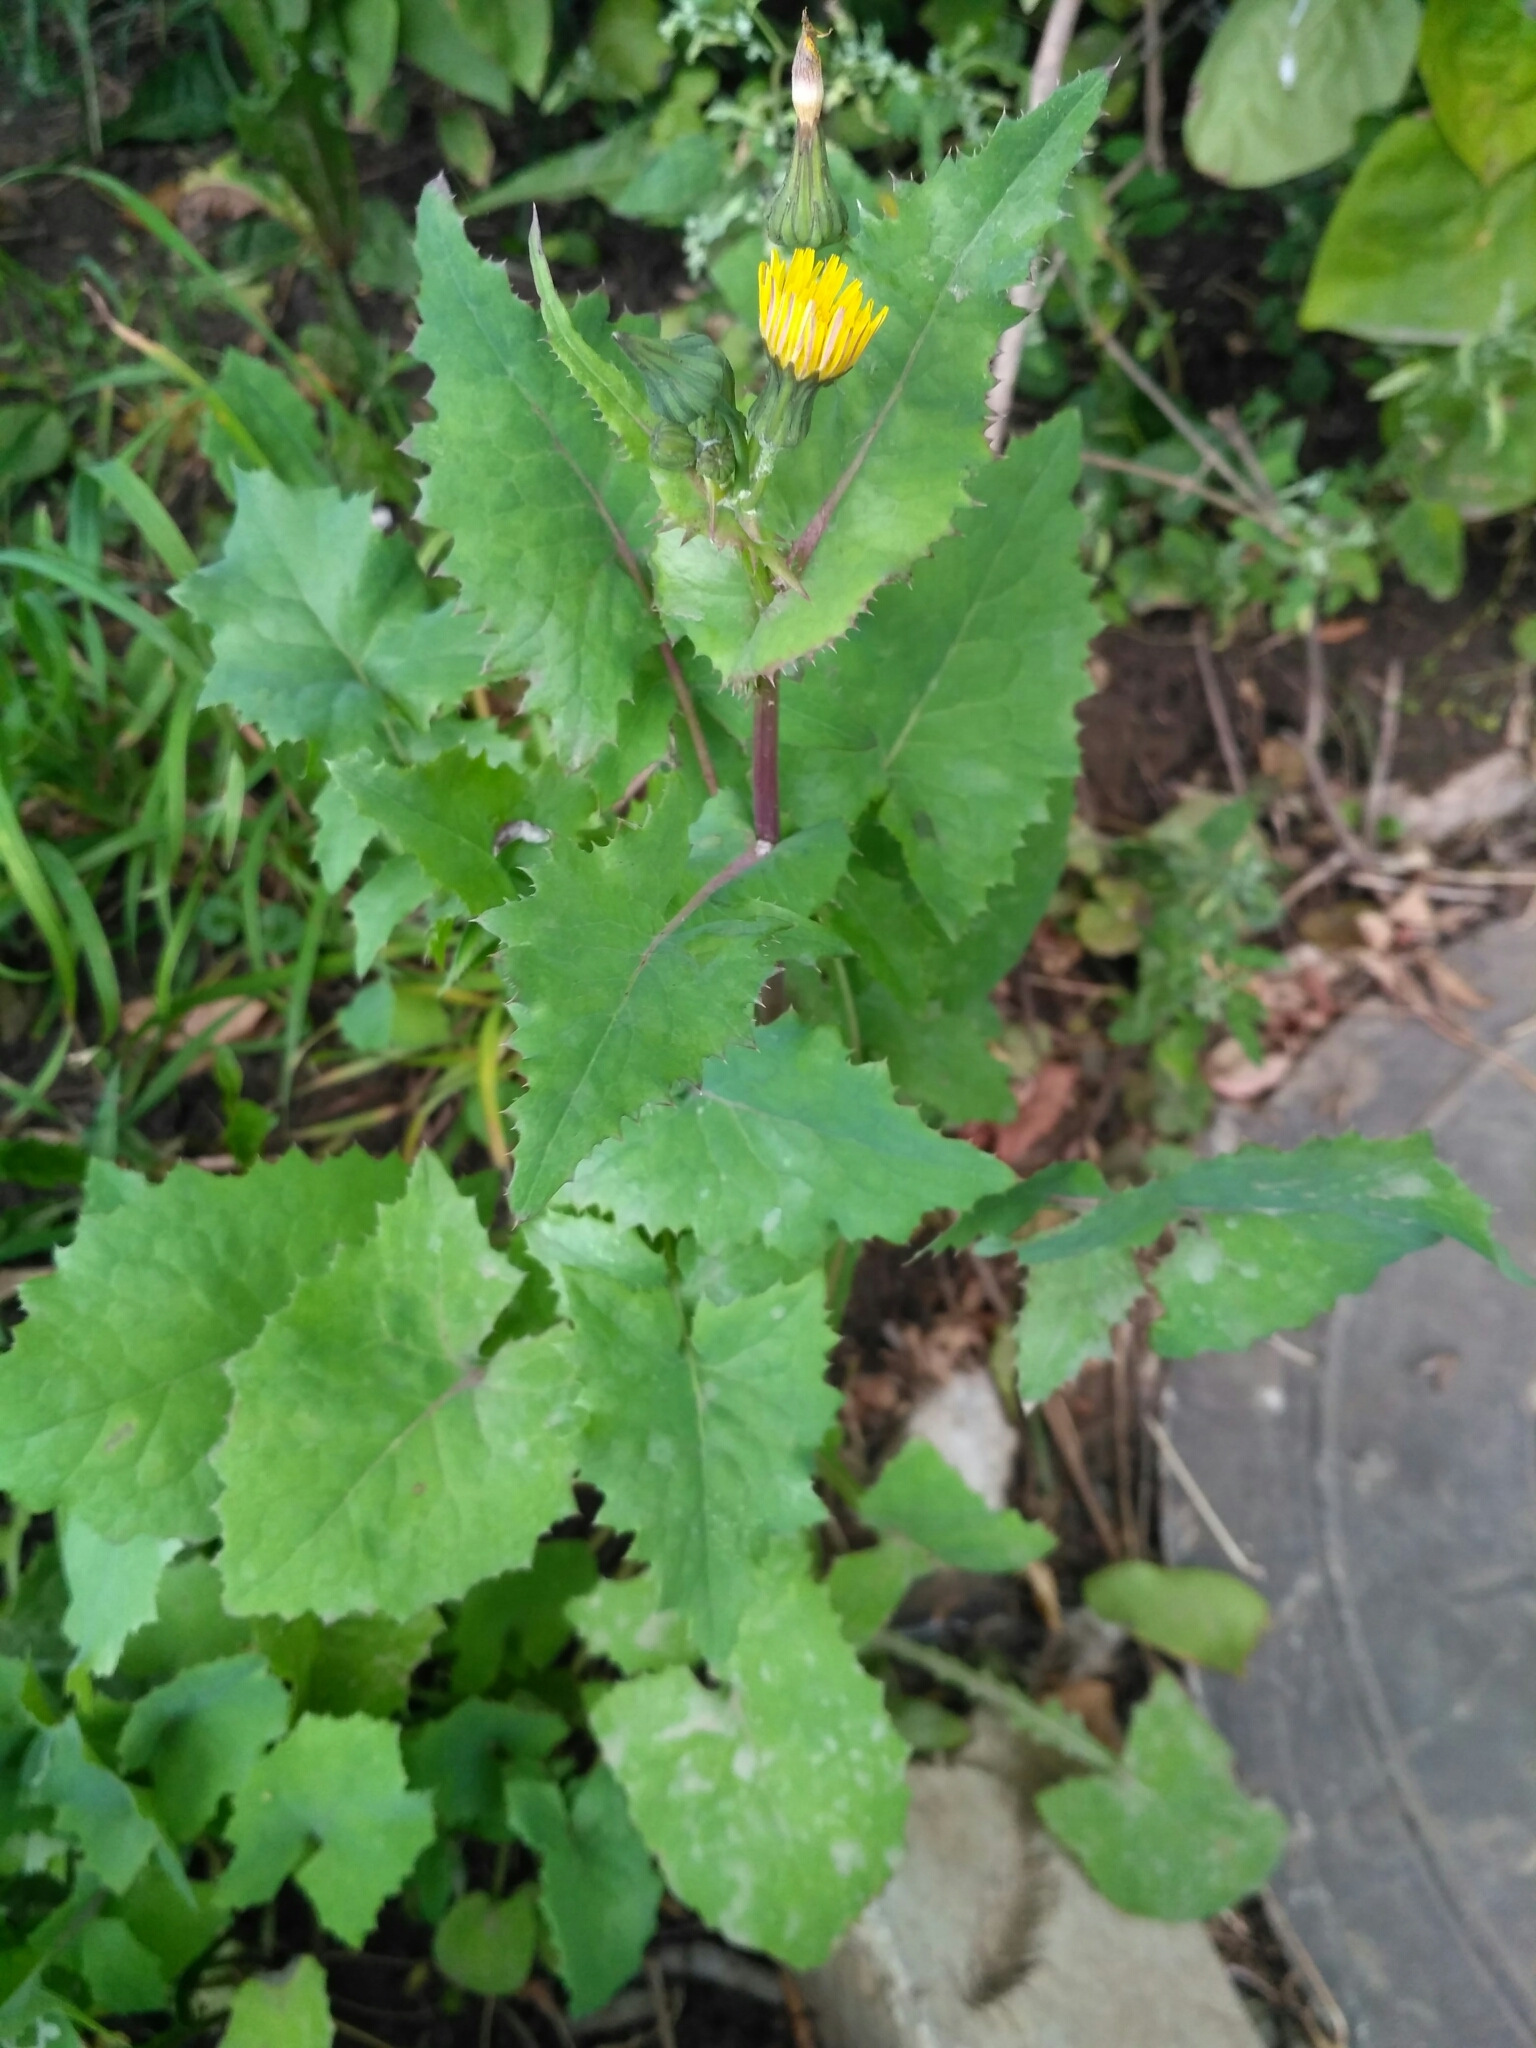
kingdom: Plantae
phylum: Tracheophyta
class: Magnoliopsida
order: Asterales
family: Asteraceae
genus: Sonchus
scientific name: Sonchus oleraceus
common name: Common sowthistle
